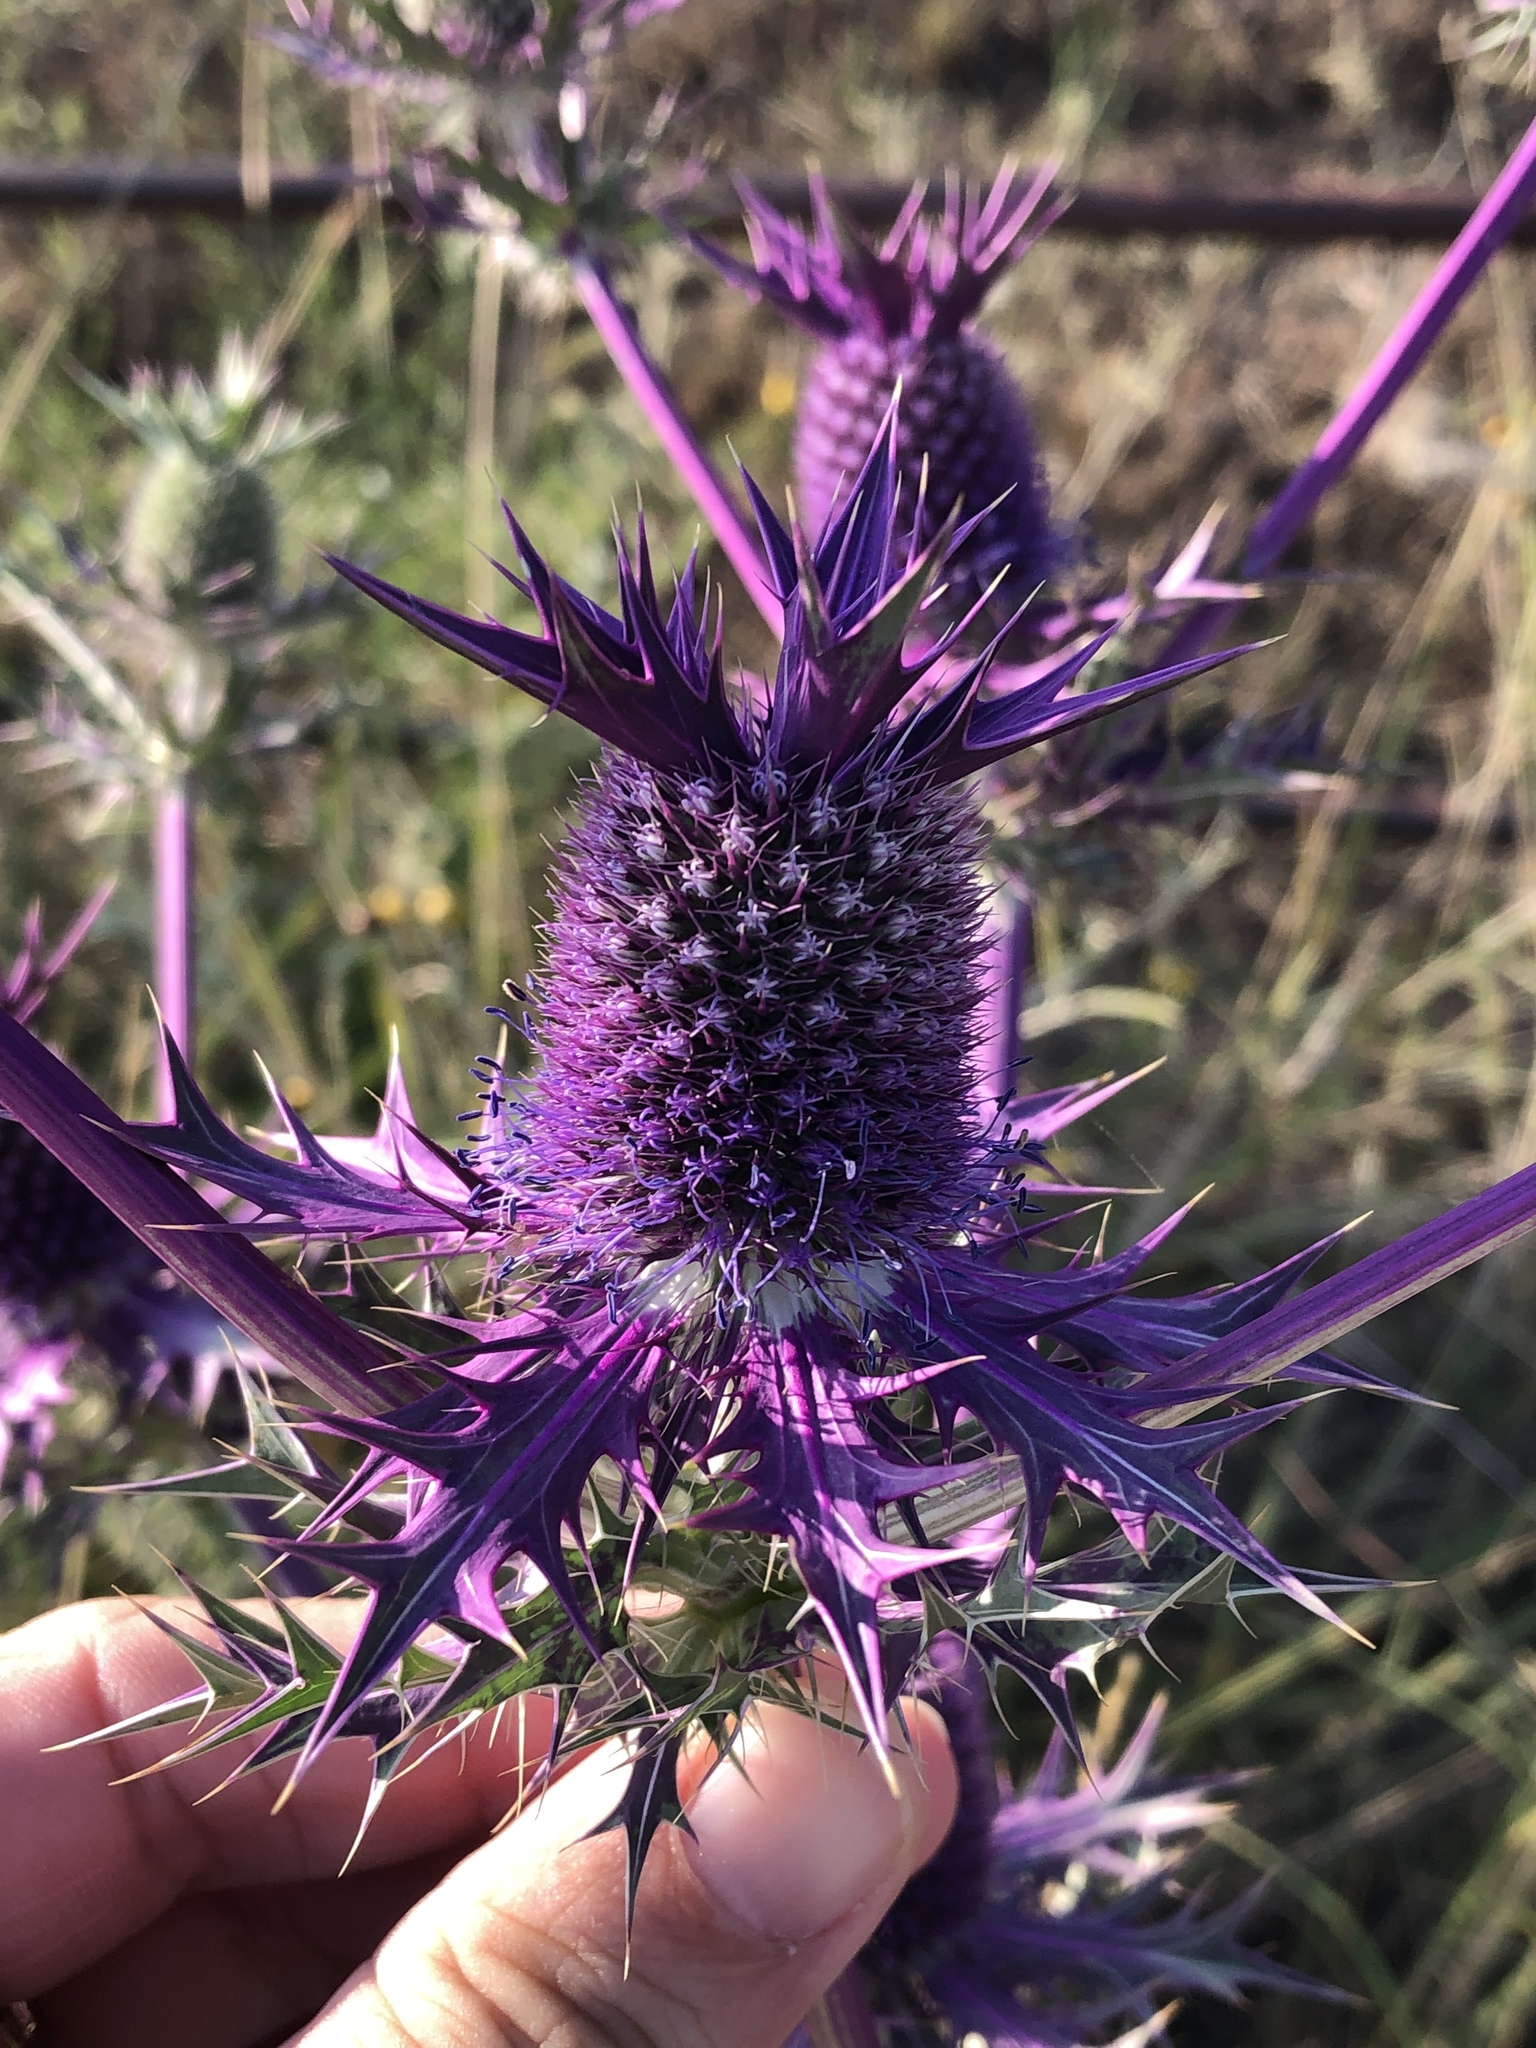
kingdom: Plantae
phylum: Tracheophyta
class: Magnoliopsida
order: Apiales
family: Apiaceae
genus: Eryngium
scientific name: Eryngium leavenworthii
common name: Leavenworth's eryngo
